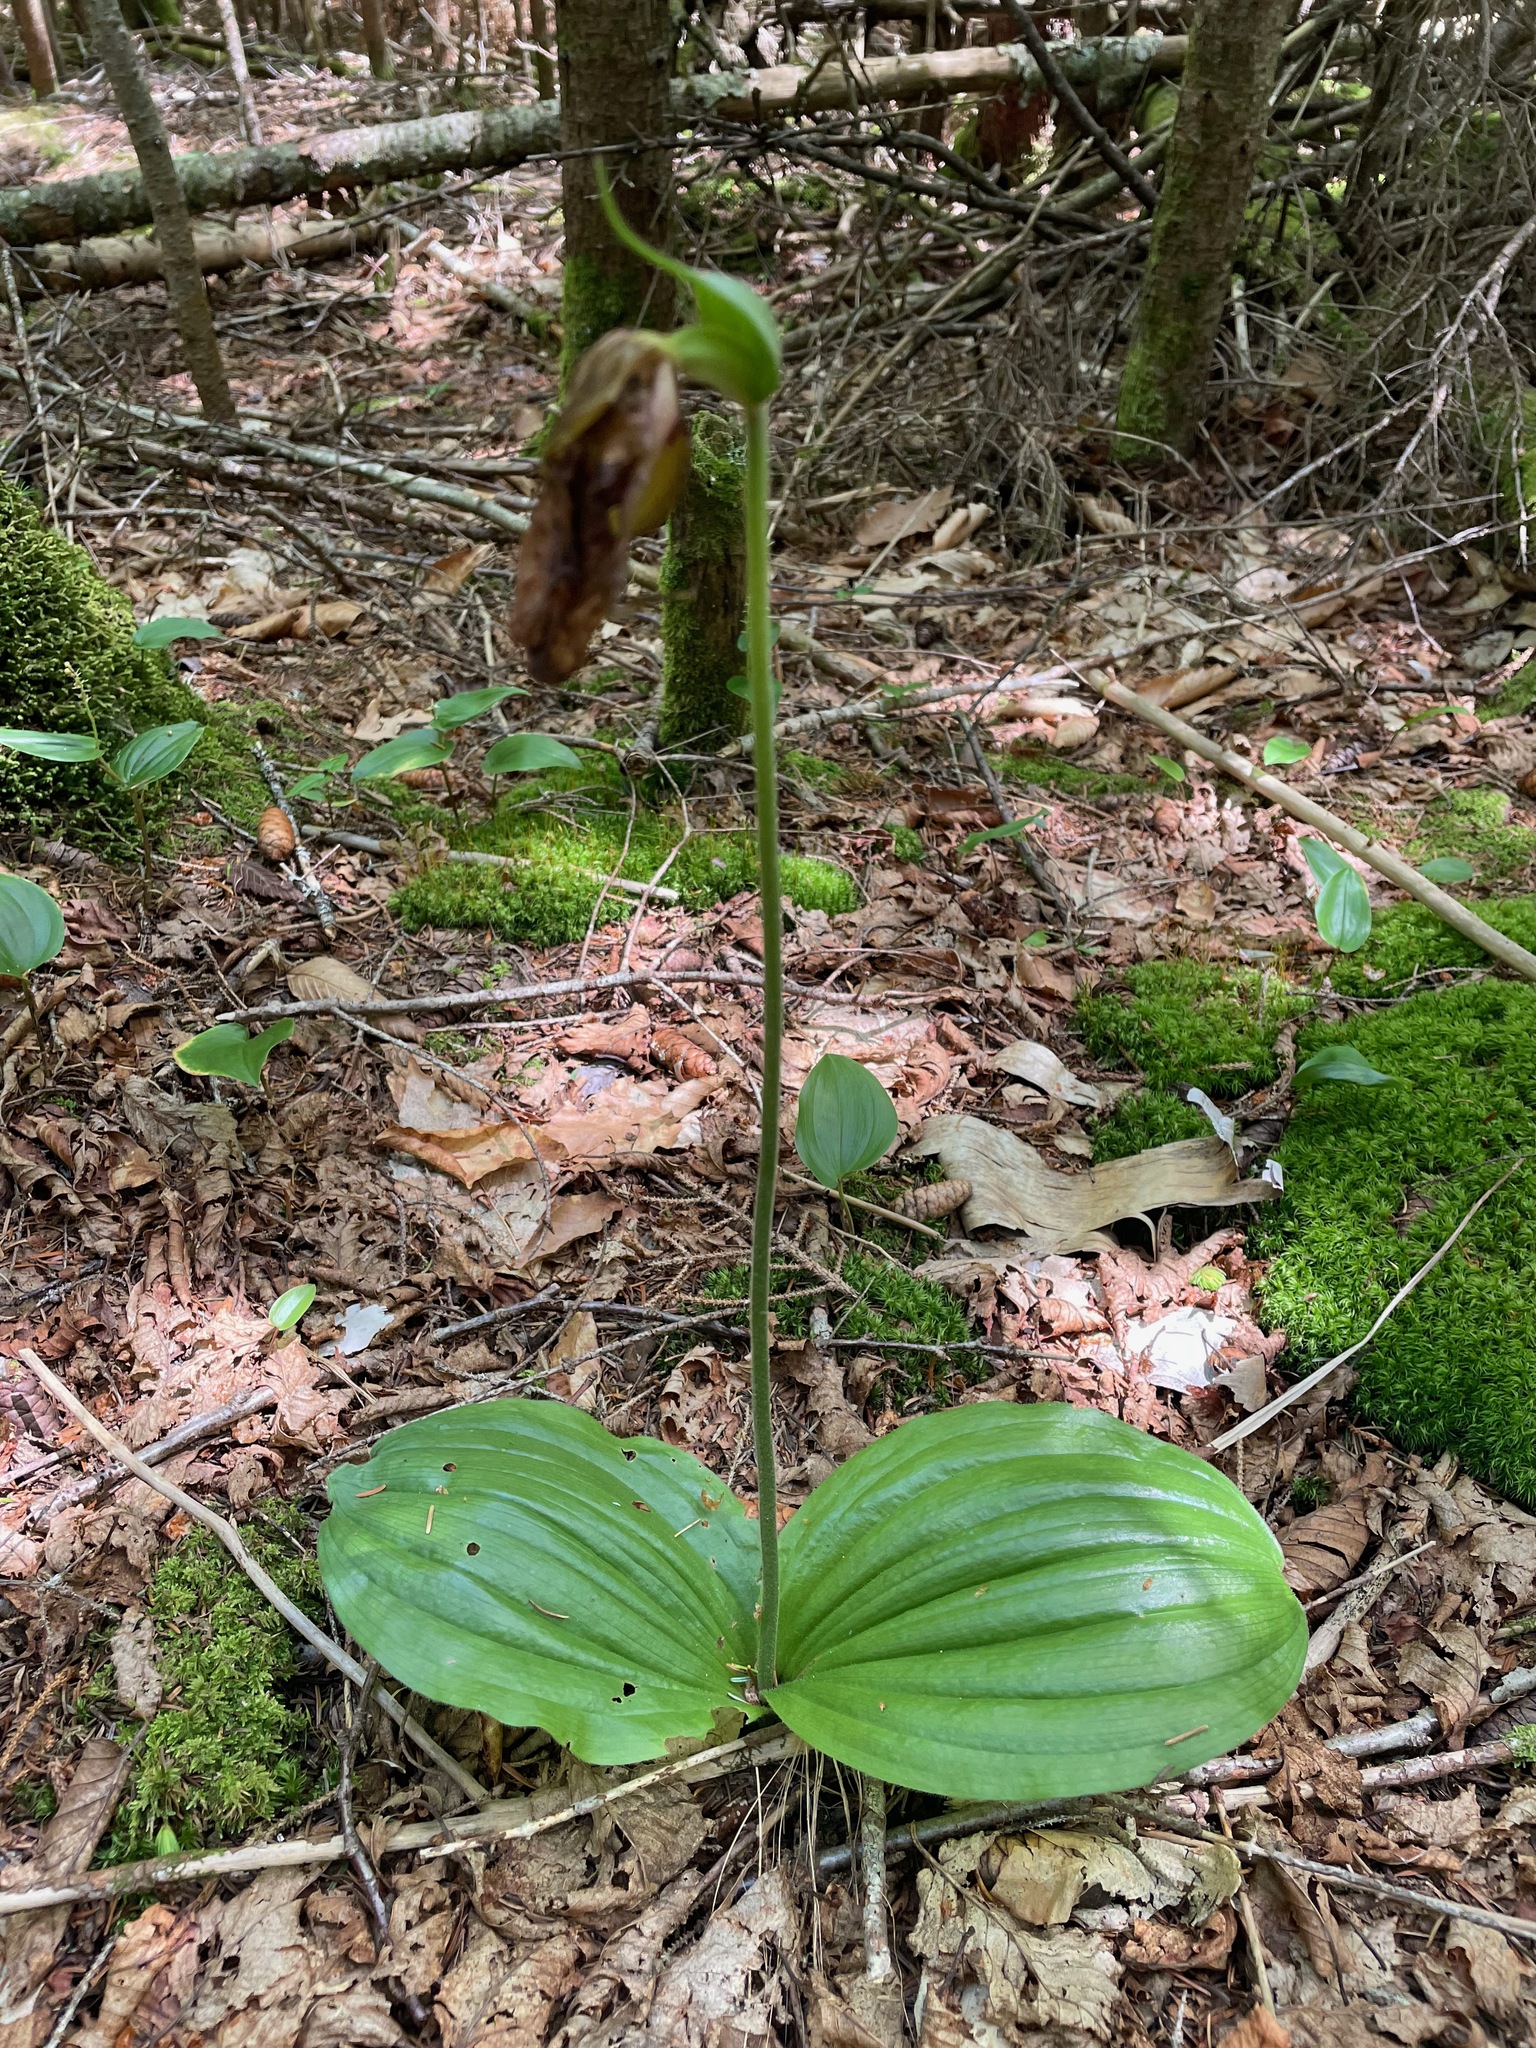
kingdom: Plantae
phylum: Tracheophyta
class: Liliopsida
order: Asparagales
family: Orchidaceae
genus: Cypripedium
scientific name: Cypripedium acaule
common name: Pink lady's-slipper
